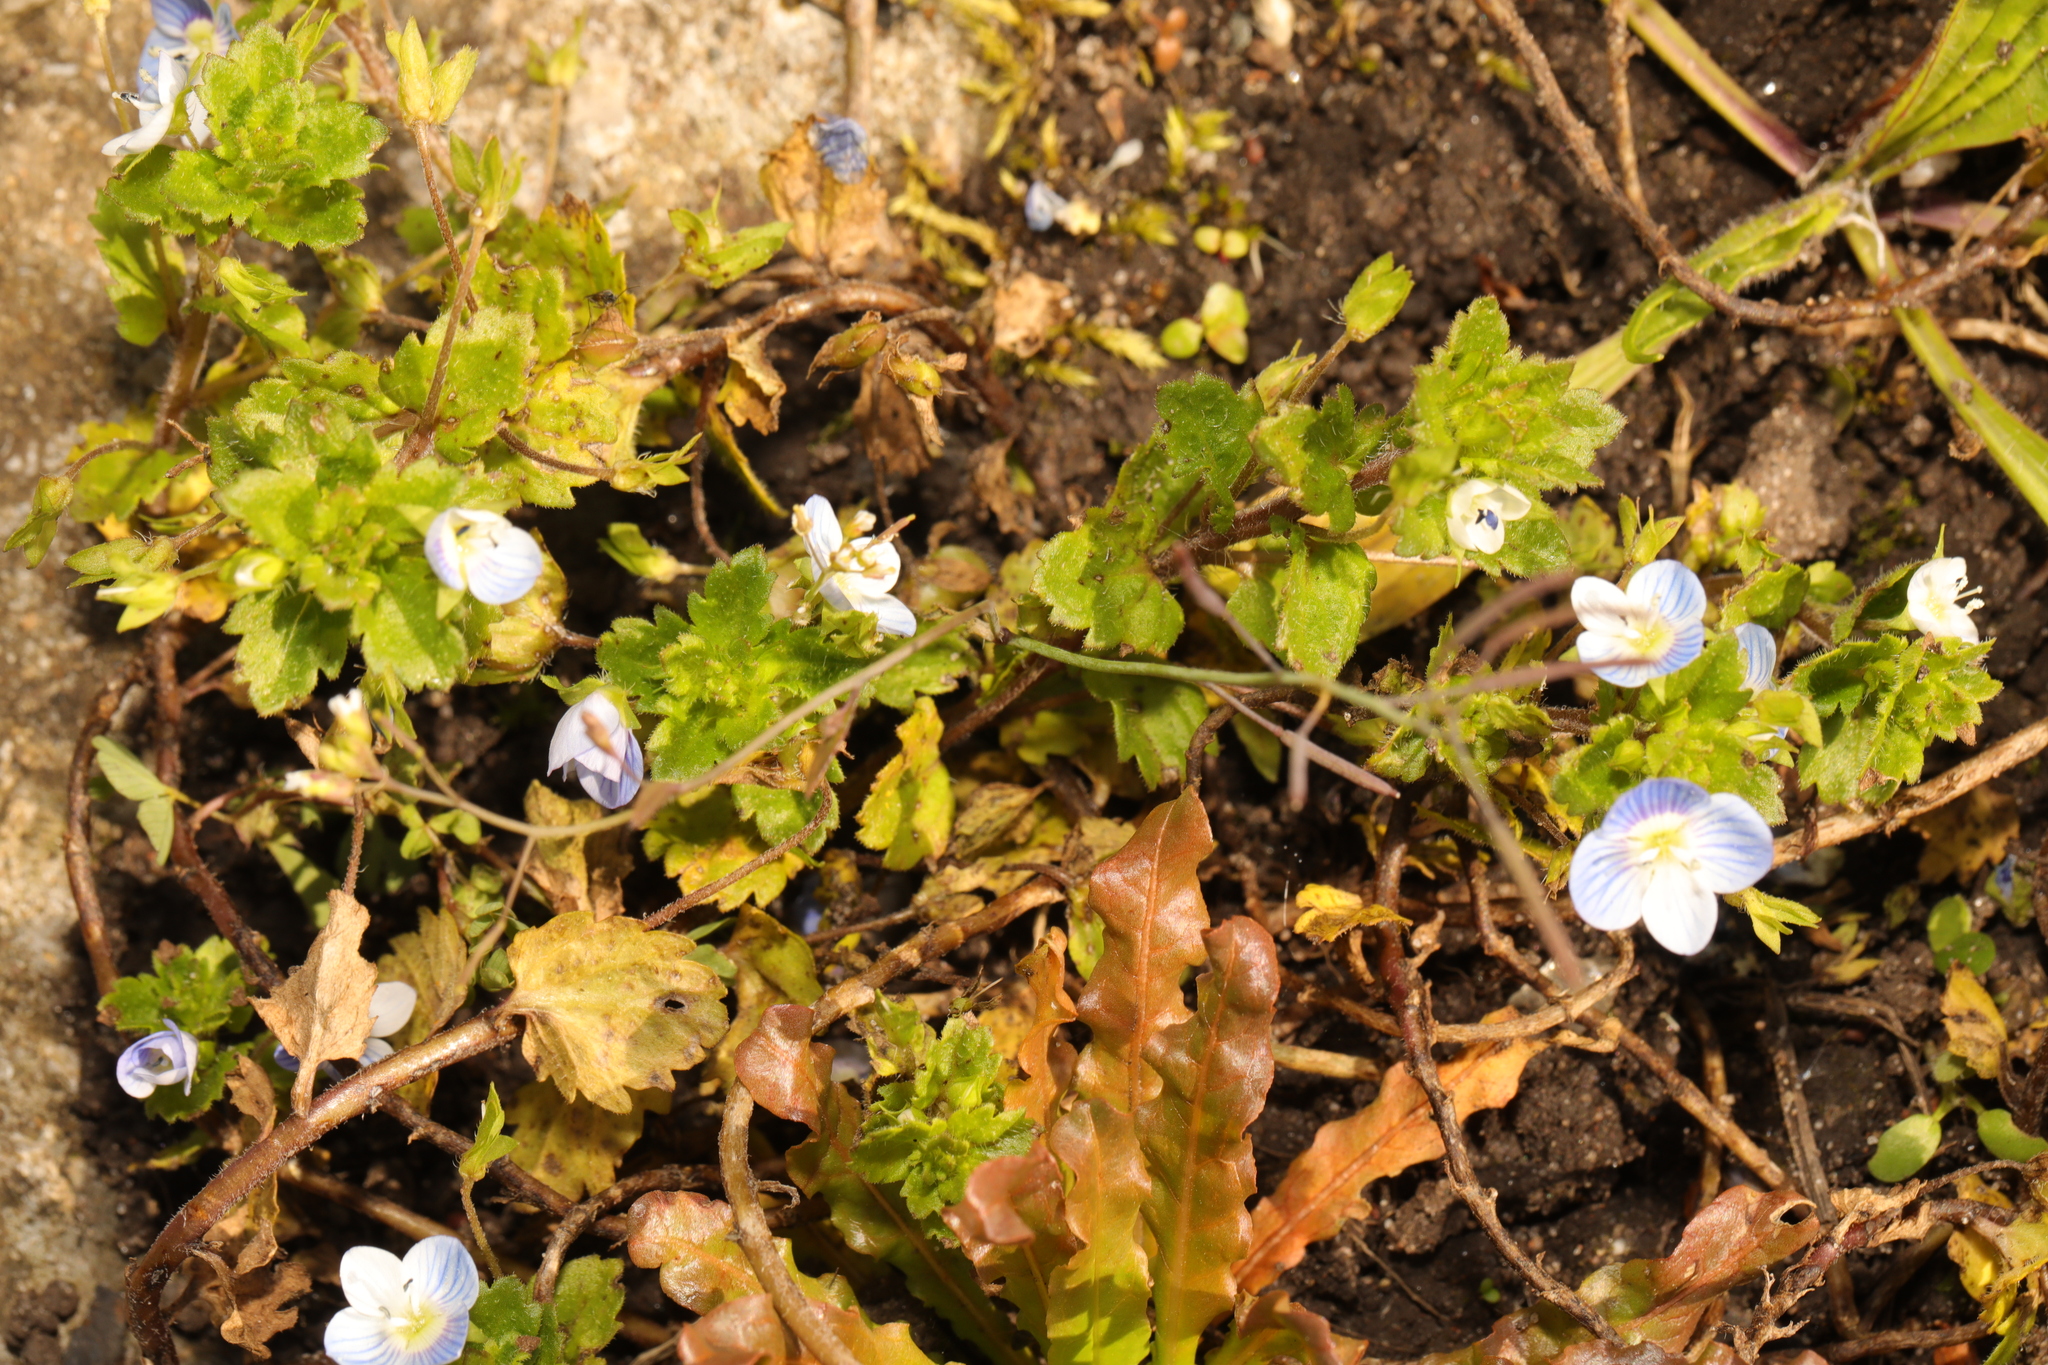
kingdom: Plantae
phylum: Tracheophyta
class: Magnoliopsida
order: Lamiales
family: Plantaginaceae
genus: Veronica
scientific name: Veronica persica
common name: Common field-speedwell
